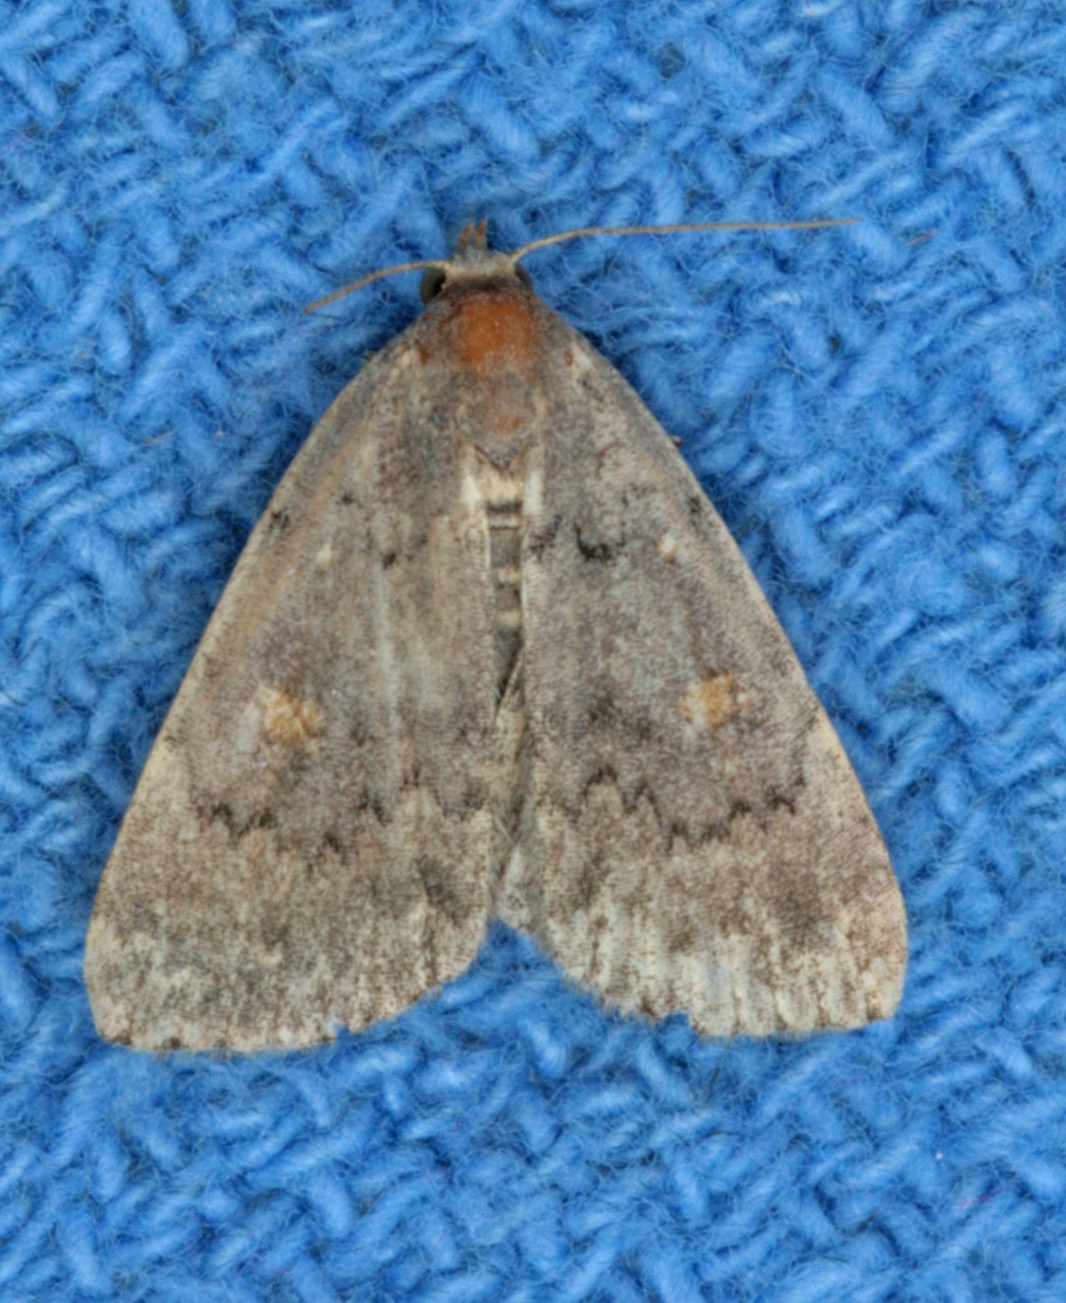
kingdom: Animalia
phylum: Arthropoda
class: Insecta
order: Lepidoptera
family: Erebidae
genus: Idia
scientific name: Idia aemula
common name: Common idia moth
